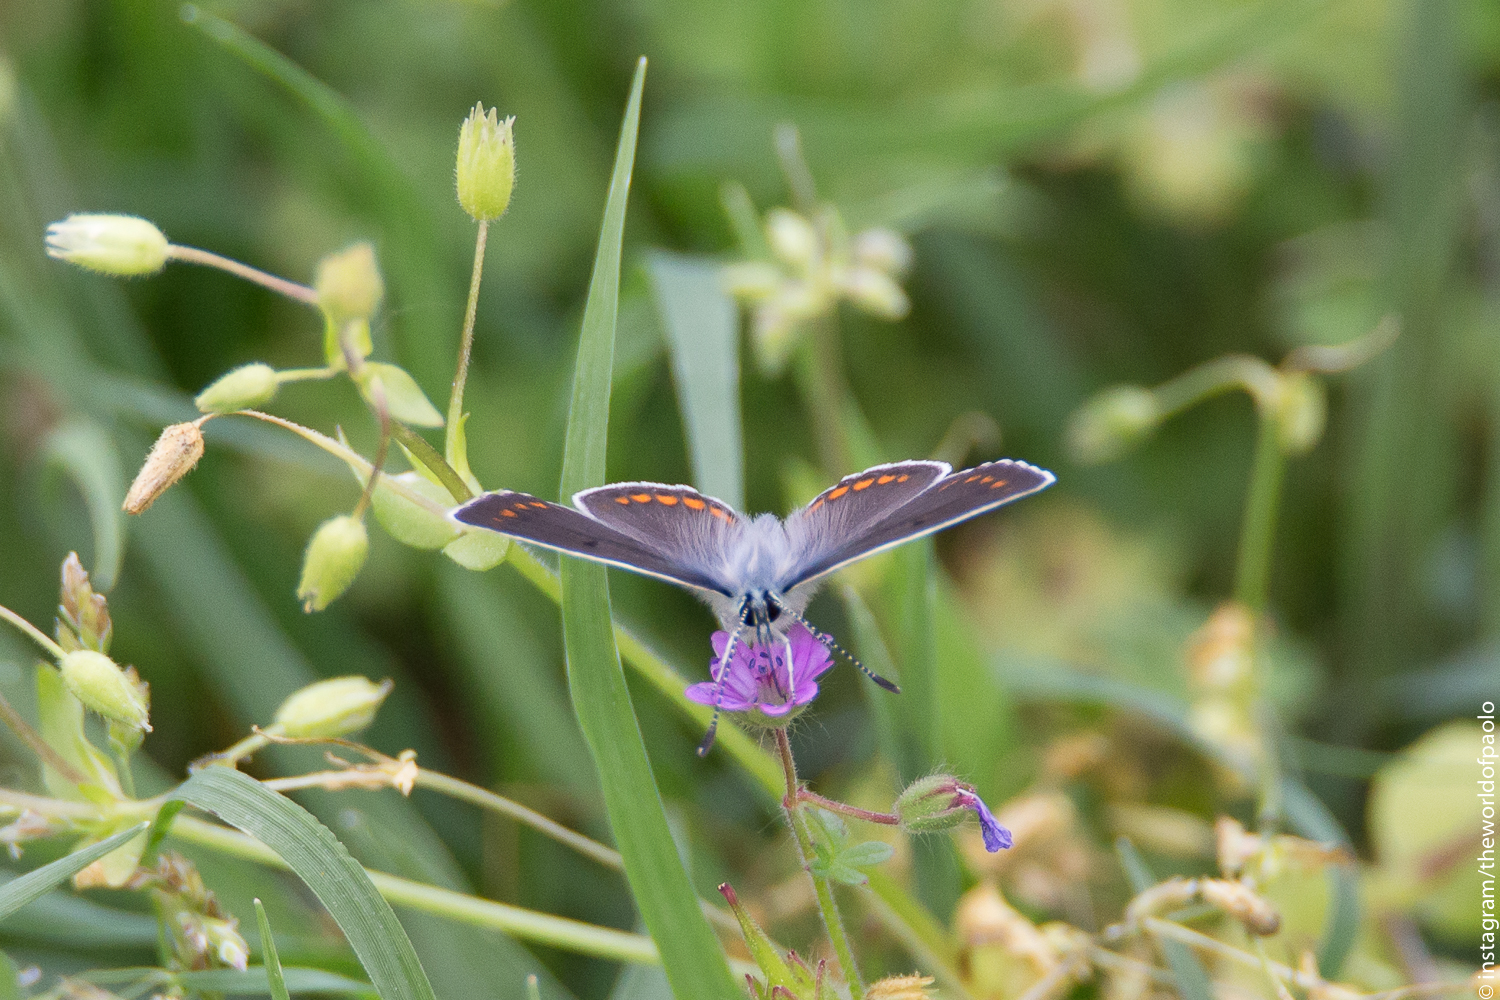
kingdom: Animalia
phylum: Arthropoda
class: Insecta
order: Lepidoptera
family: Lycaenidae
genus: Aricia
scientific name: Aricia agestis
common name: Brown argus
